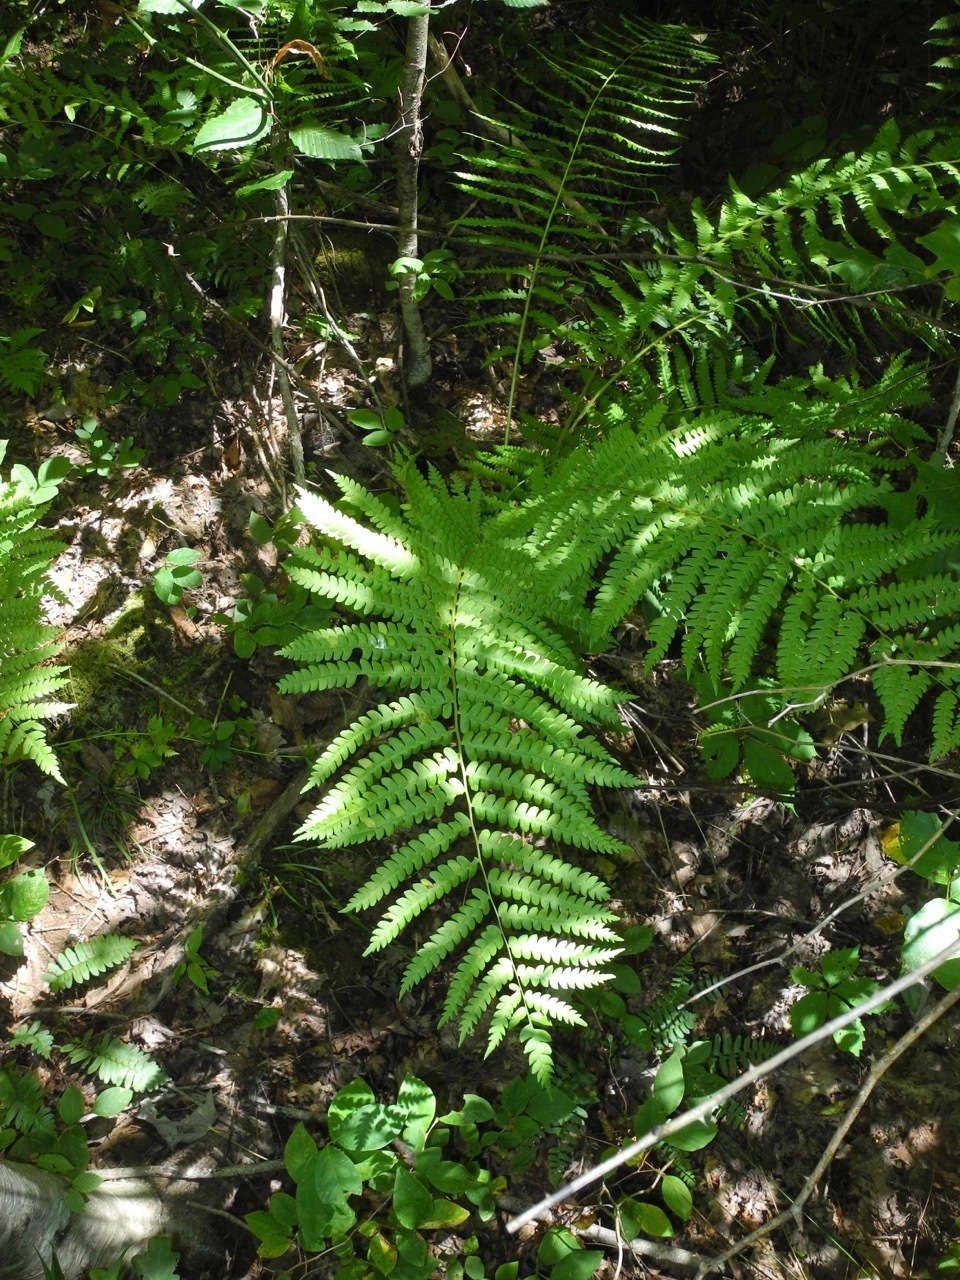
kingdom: Plantae
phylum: Tracheophyta
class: Polypodiopsida
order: Osmundales
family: Osmundaceae
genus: Osmundastrum
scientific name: Osmundastrum cinnamomeum
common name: Cinnamon fern
